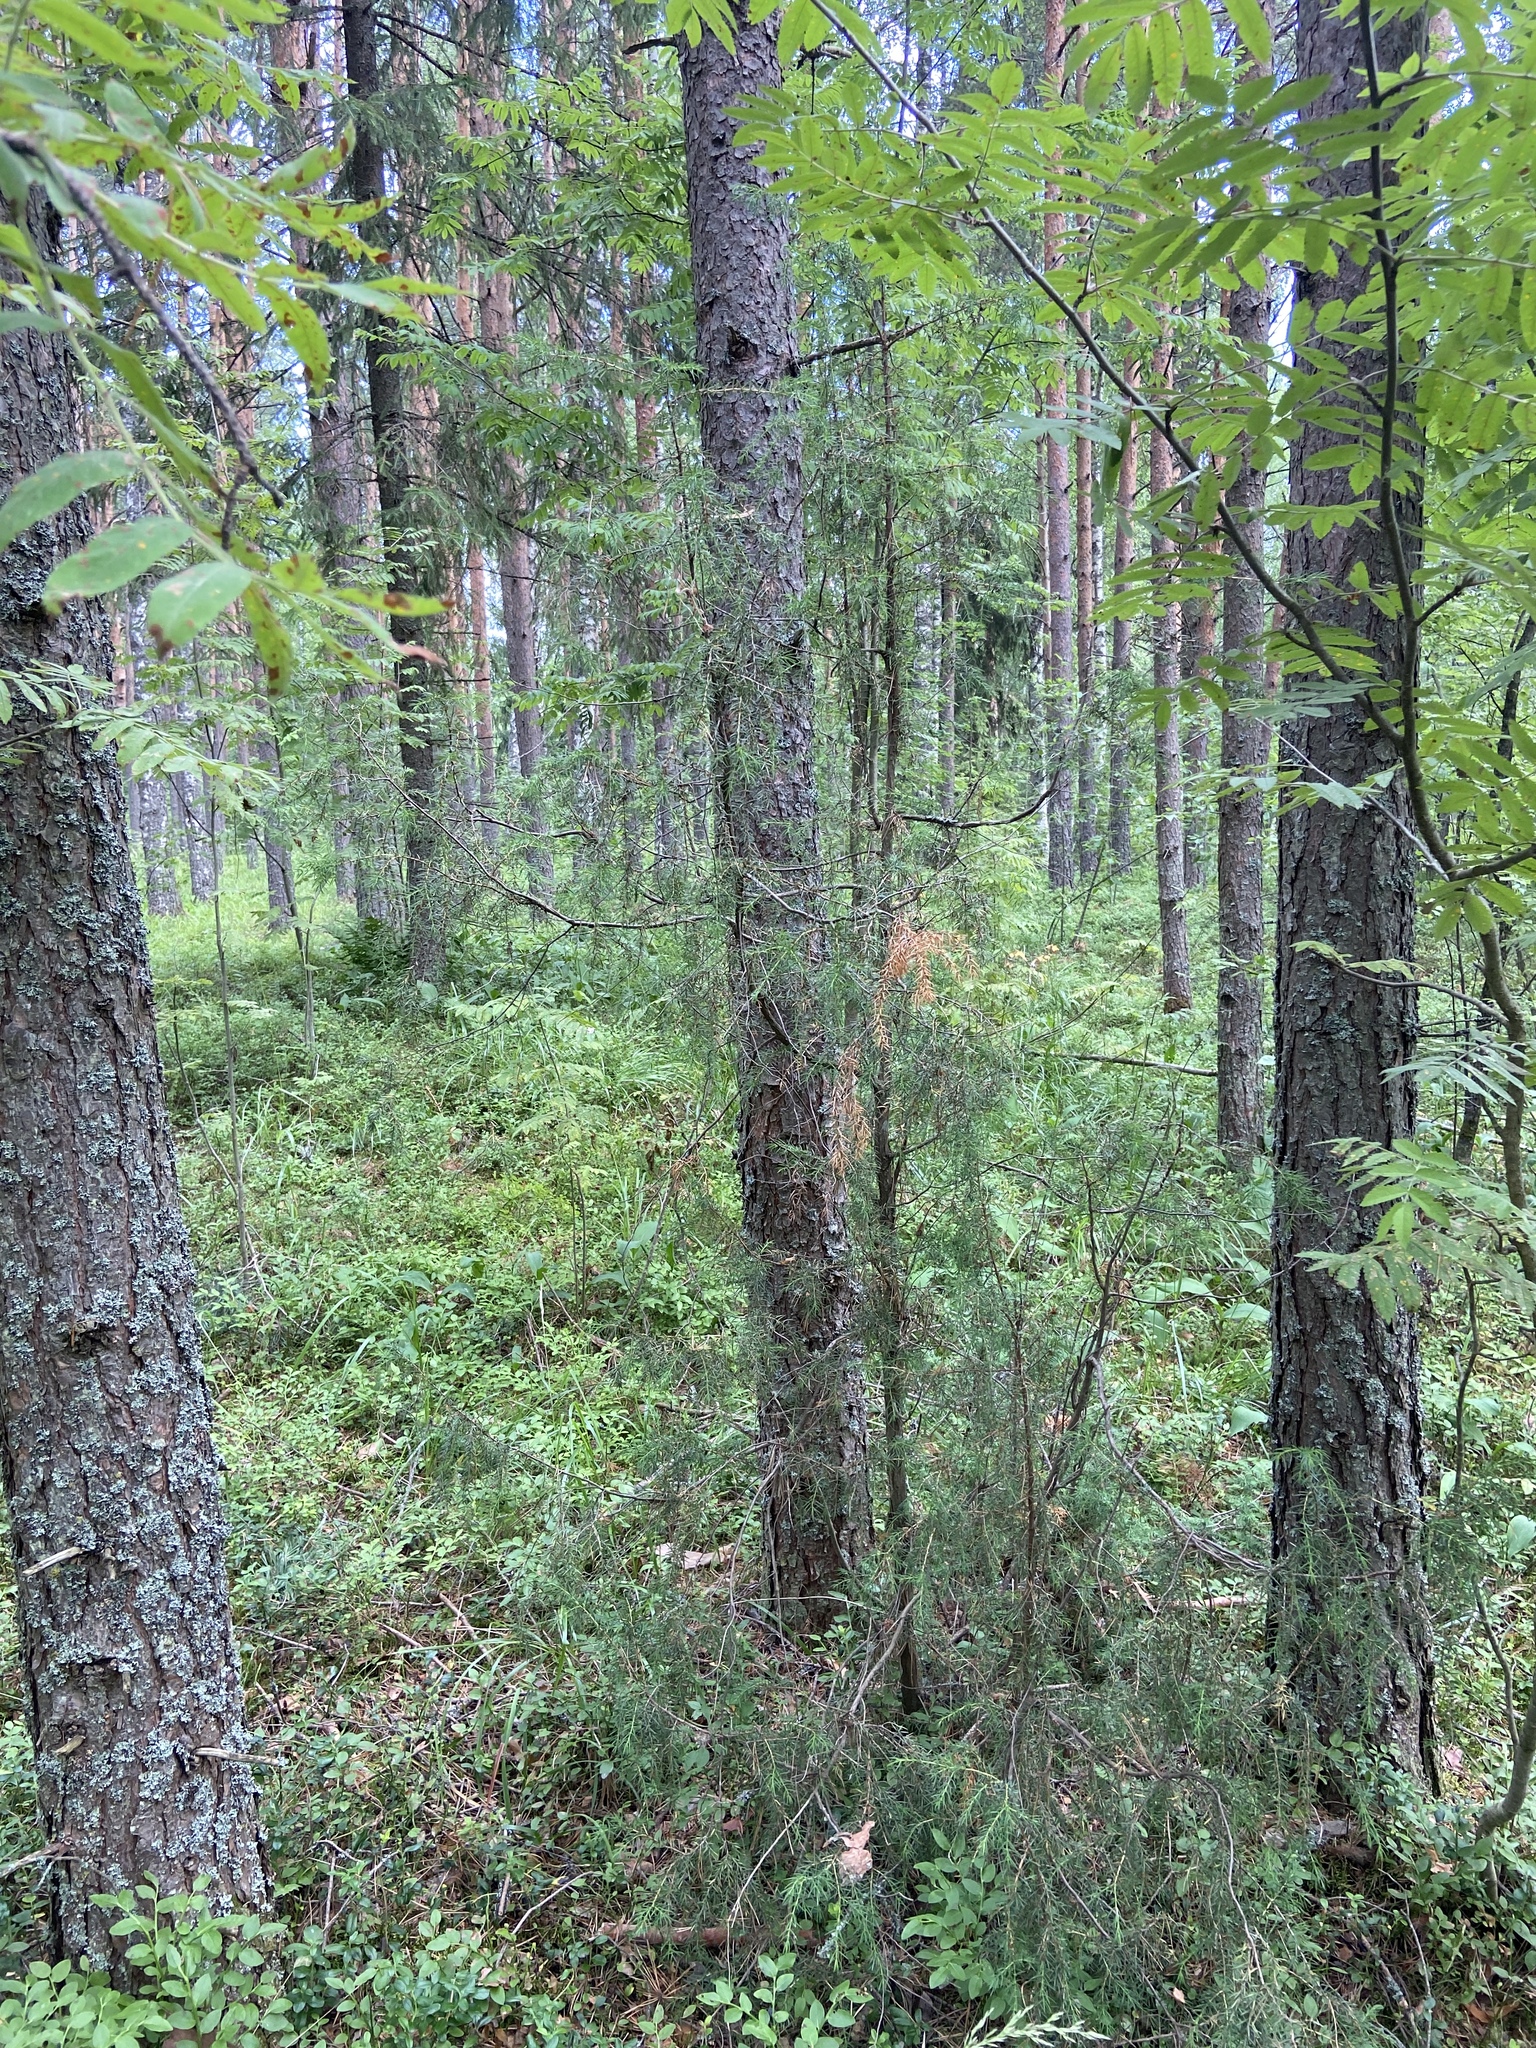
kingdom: Plantae
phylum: Tracheophyta
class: Pinopsida
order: Pinales
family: Cupressaceae
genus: Juniperus
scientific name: Juniperus communis
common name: Common juniper
